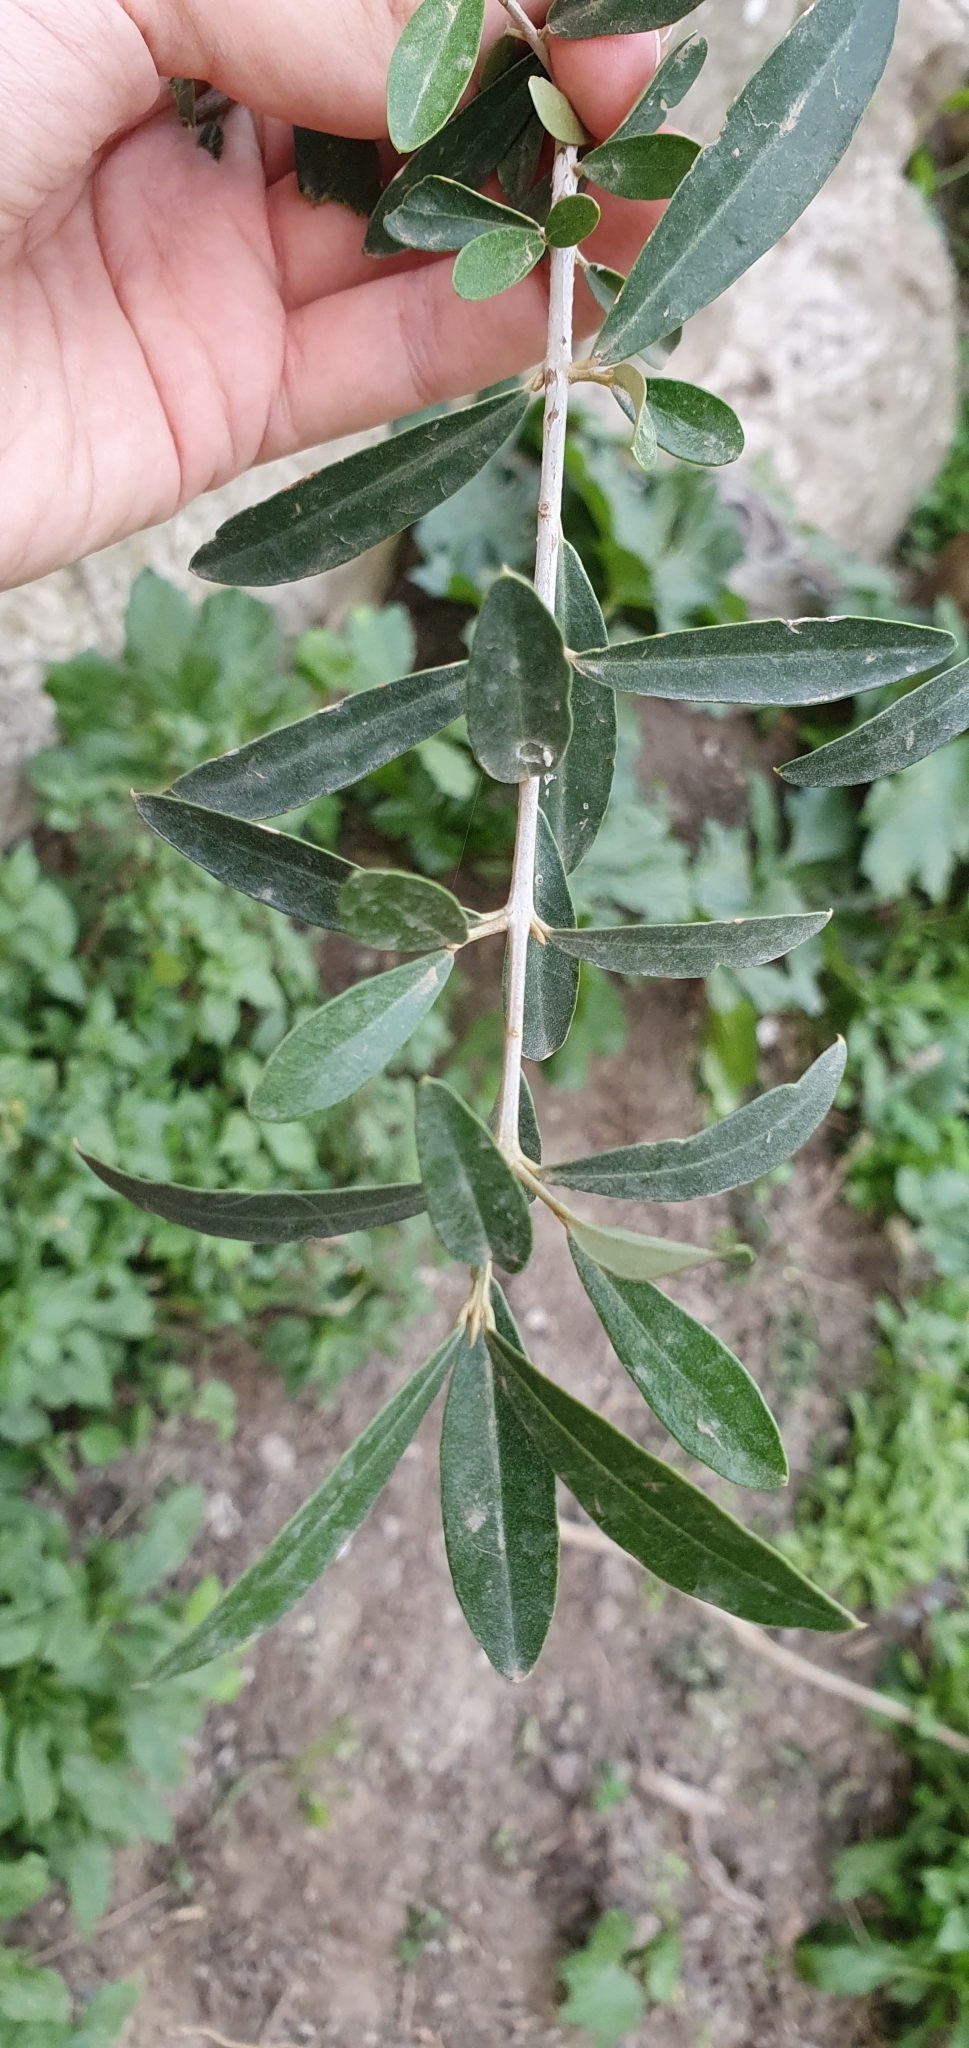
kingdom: Plantae
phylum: Tracheophyta
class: Magnoliopsida
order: Lamiales
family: Oleaceae
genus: Olea
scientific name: Olea europaea
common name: Olive
